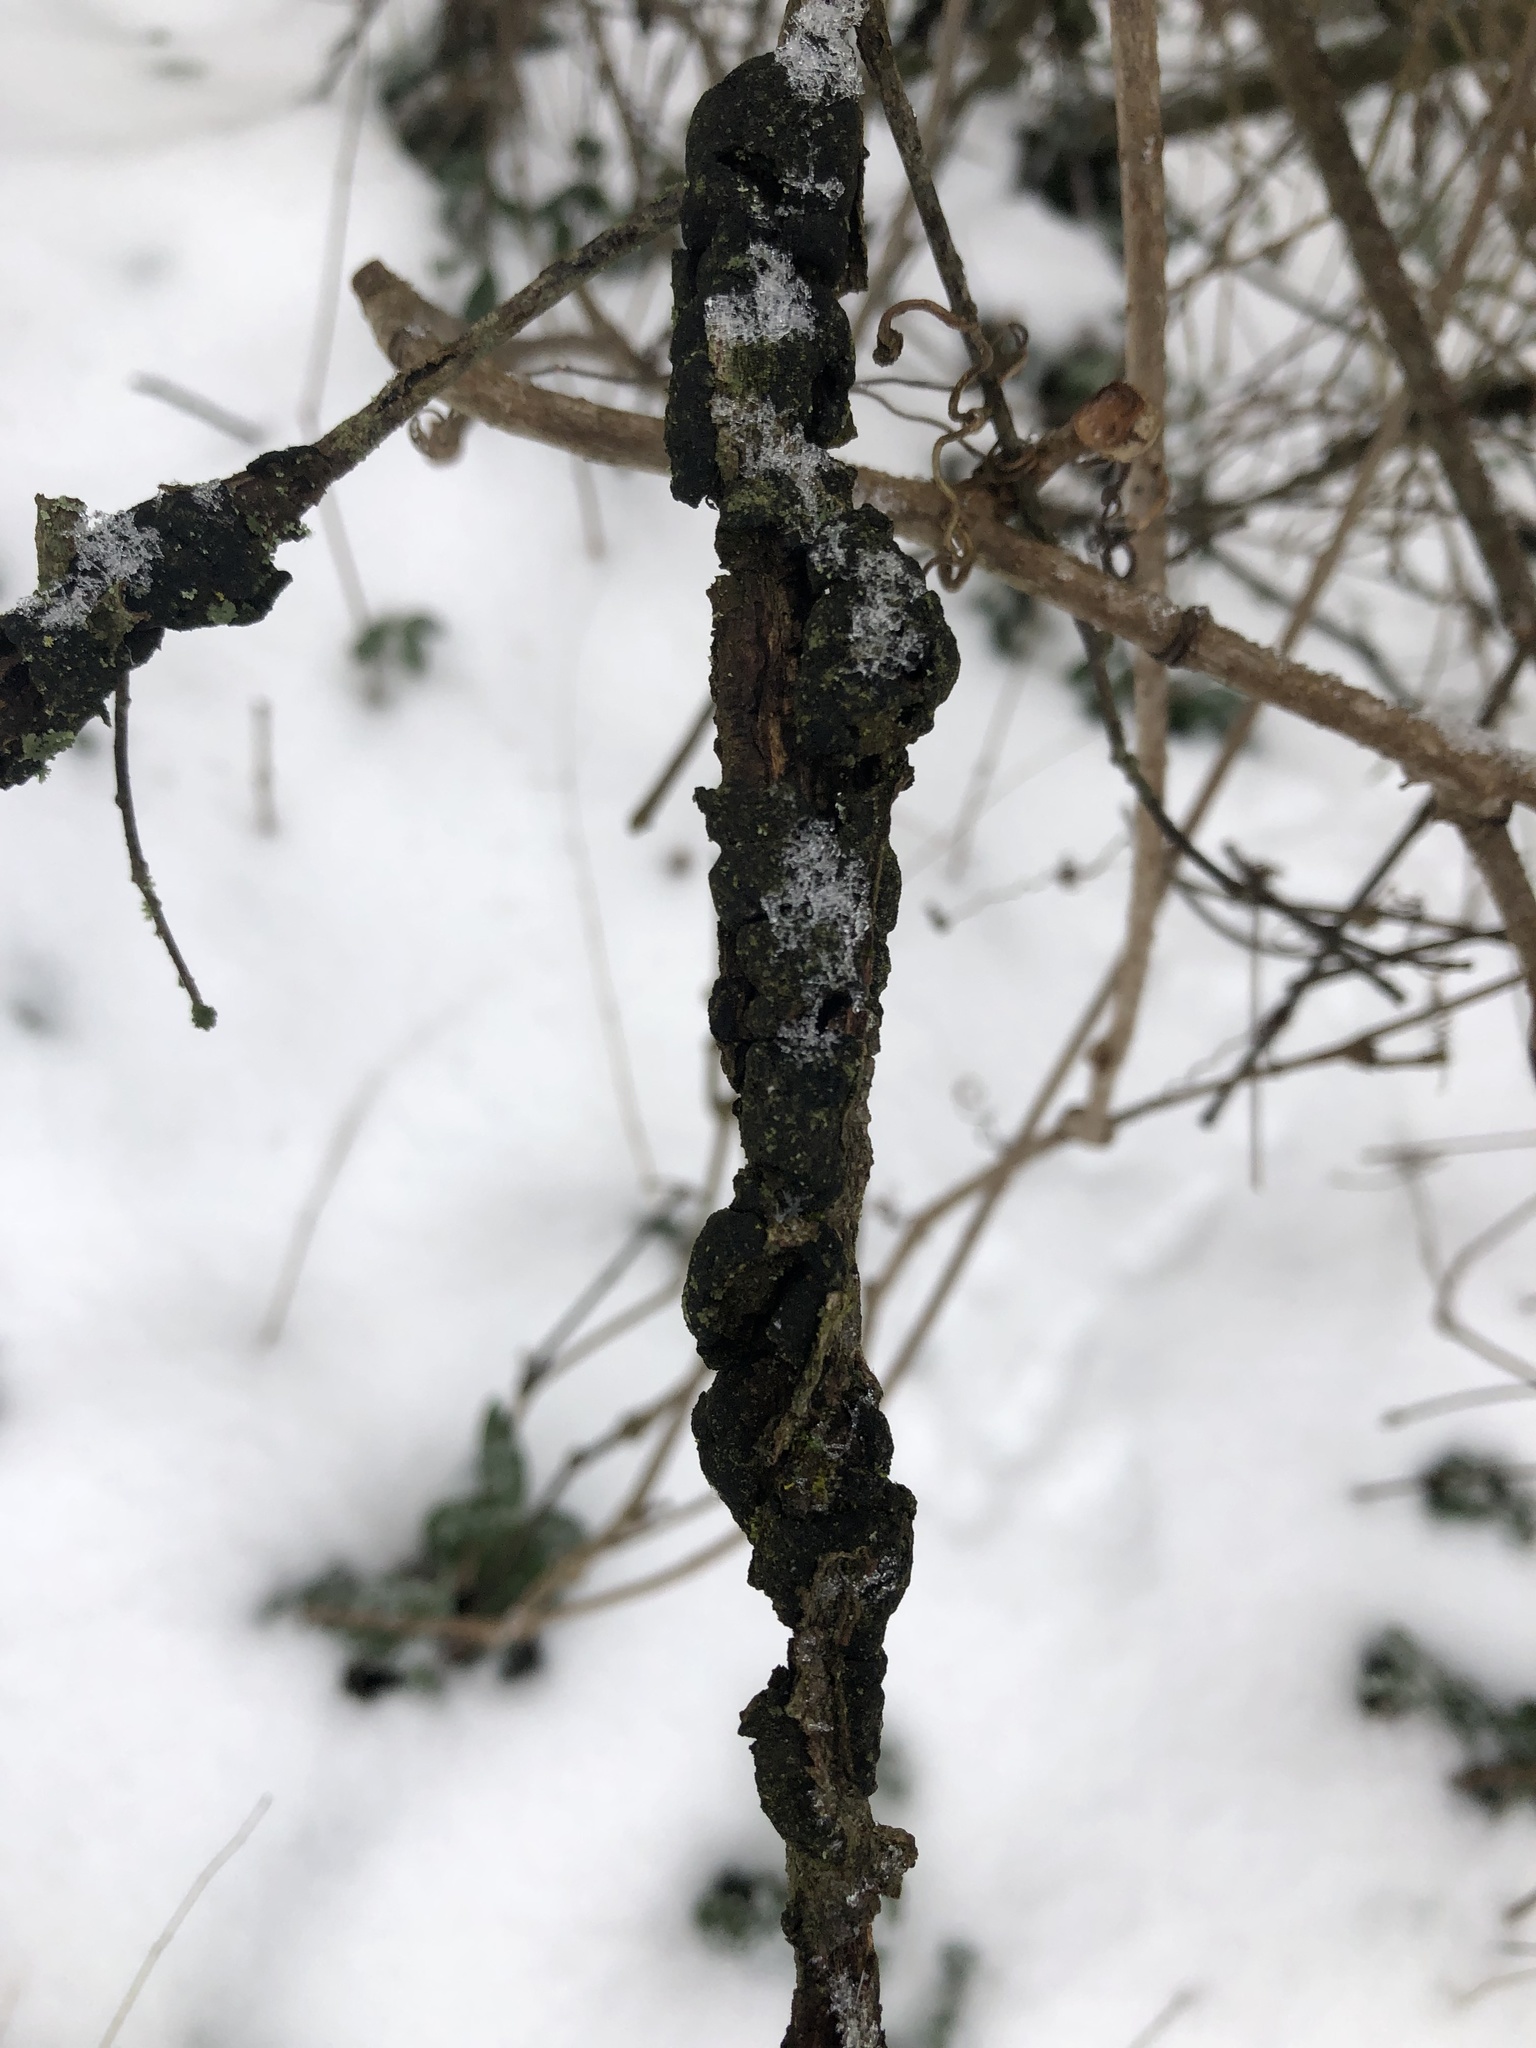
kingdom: Fungi
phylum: Ascomycota
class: Dothideomycetes
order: Venturiales
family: Venturiaceae
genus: Apiosporina
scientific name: Apiosporina morbosa
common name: Black knot
